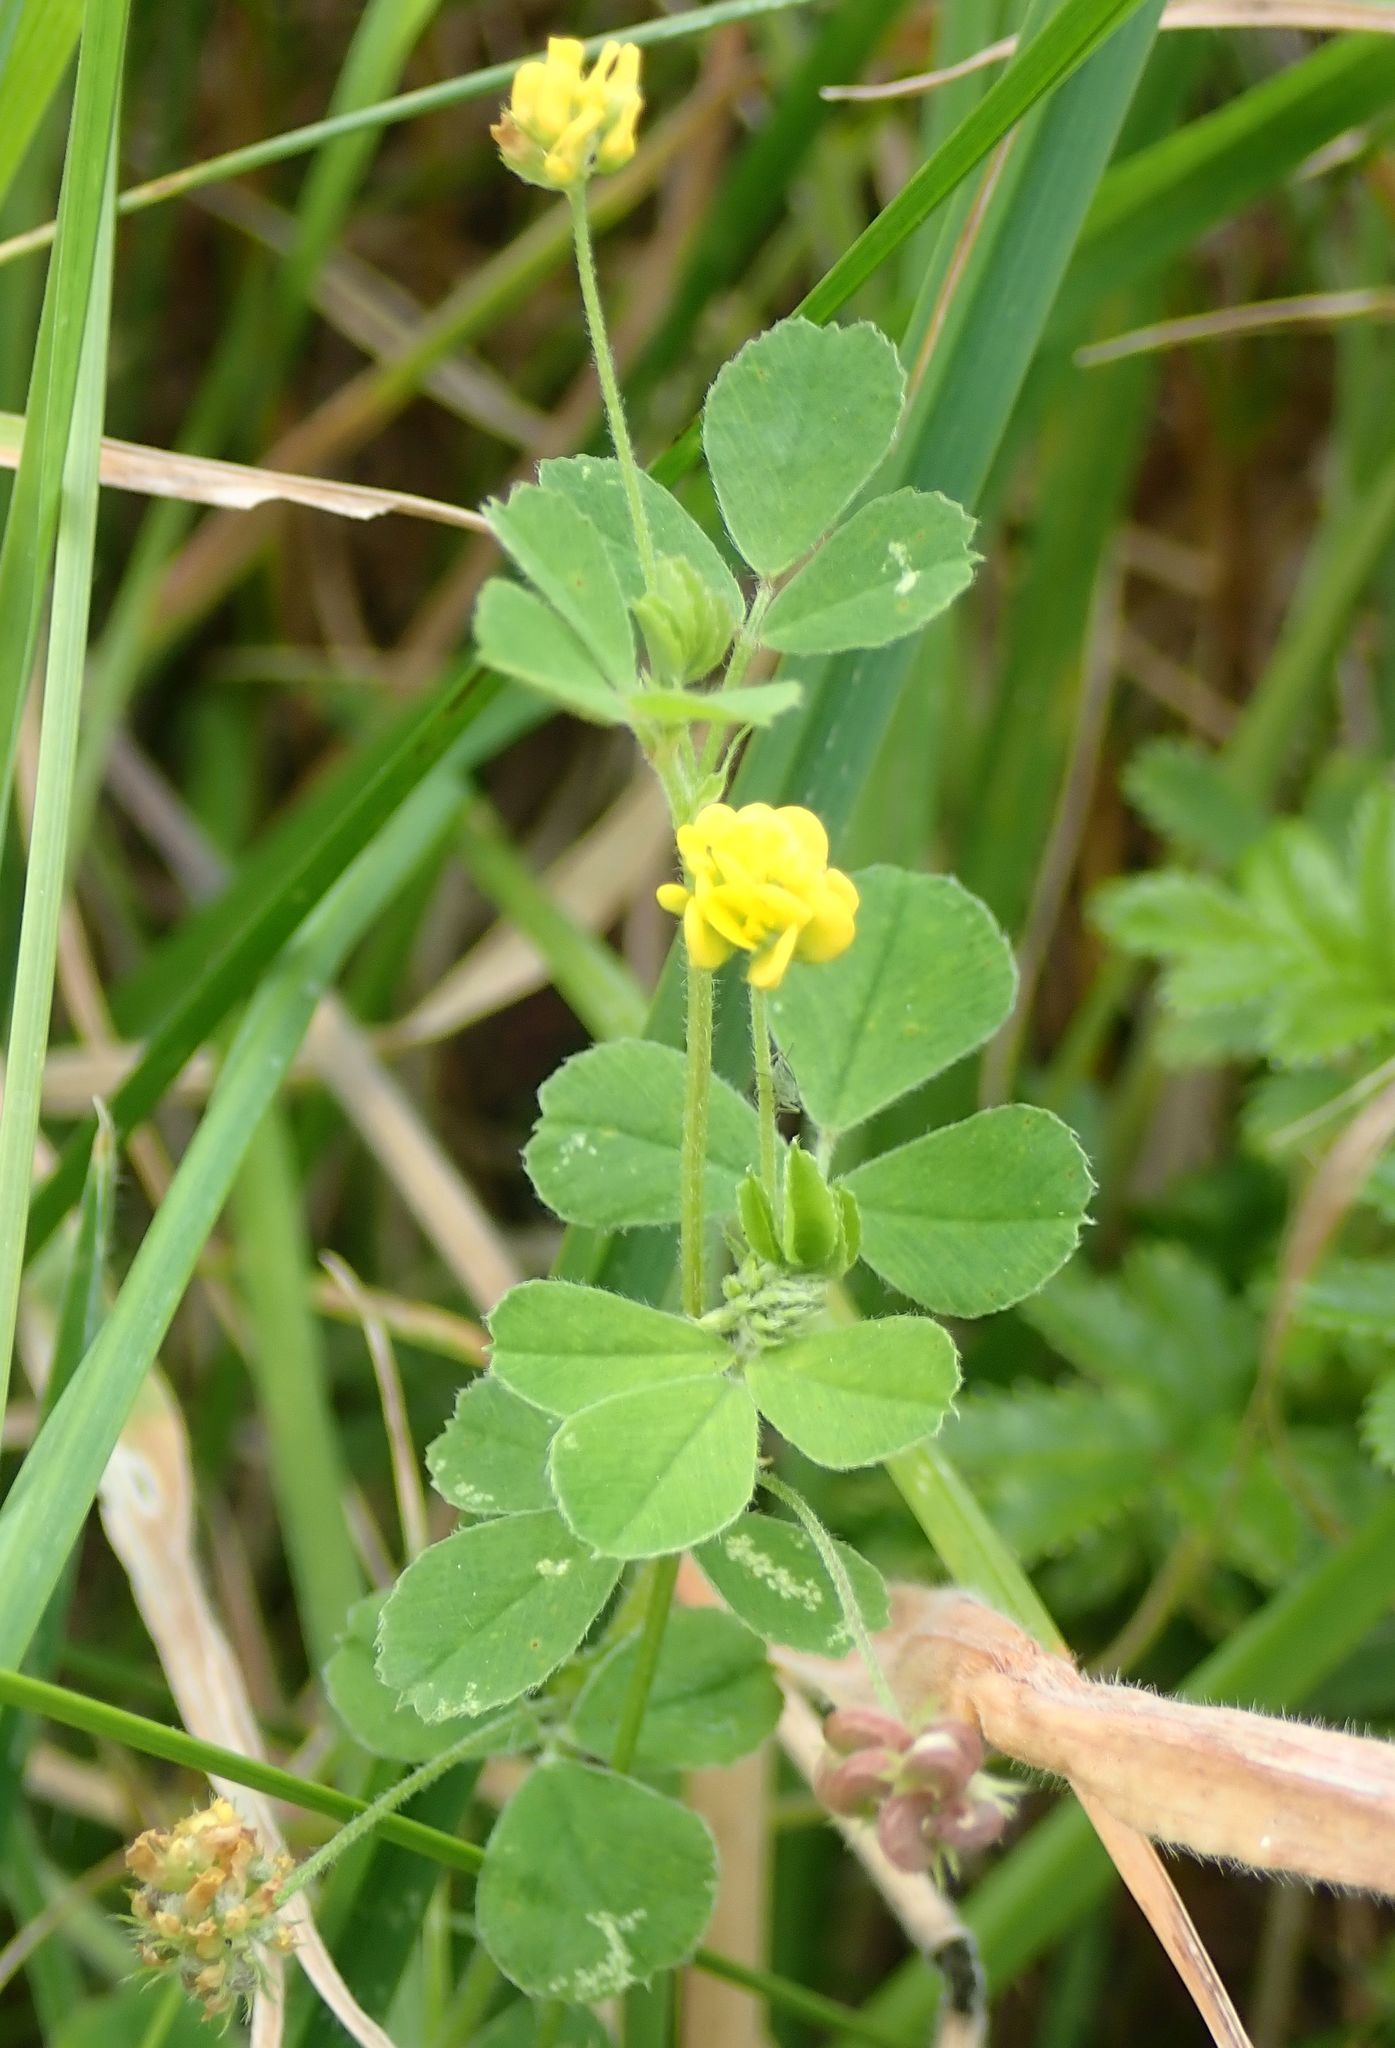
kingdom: Plantae
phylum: Tracheophyta
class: Magnoliopsida
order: Fabales
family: Fabaceae
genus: Medicago
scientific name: Medicago lupulina
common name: Black medick
